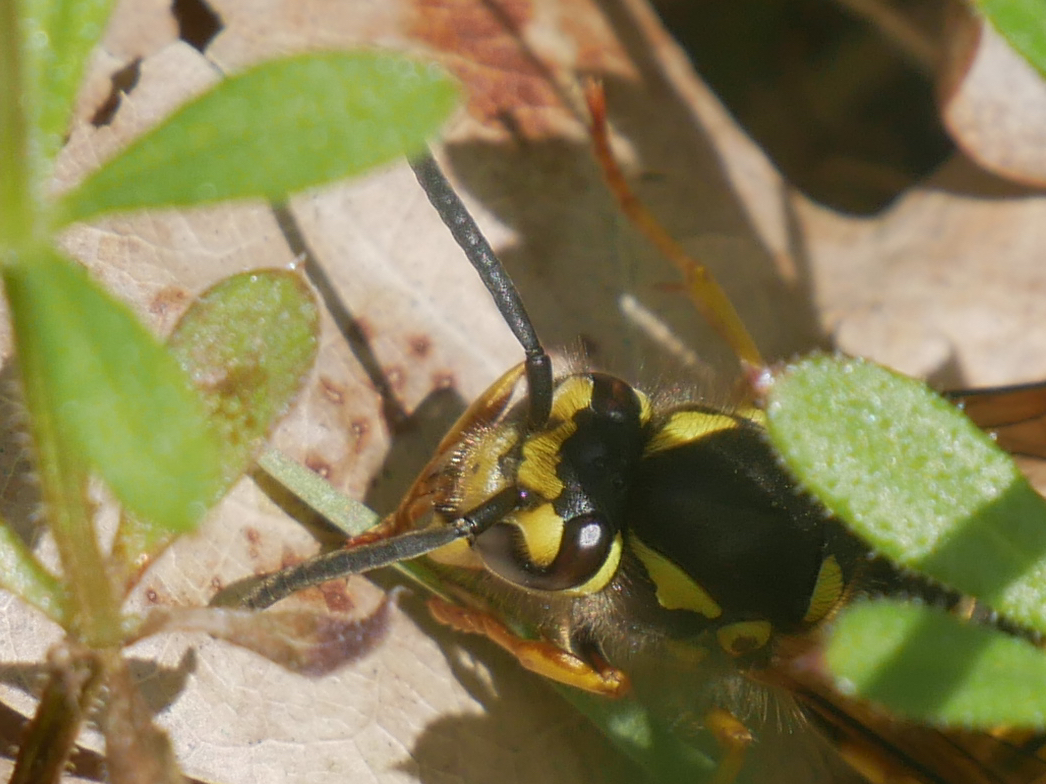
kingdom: Animalia
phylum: Arthropoda
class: Insecta
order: Hymenoptera
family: Vespidae
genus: Vespula
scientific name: Vespula germanica
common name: German wasp
